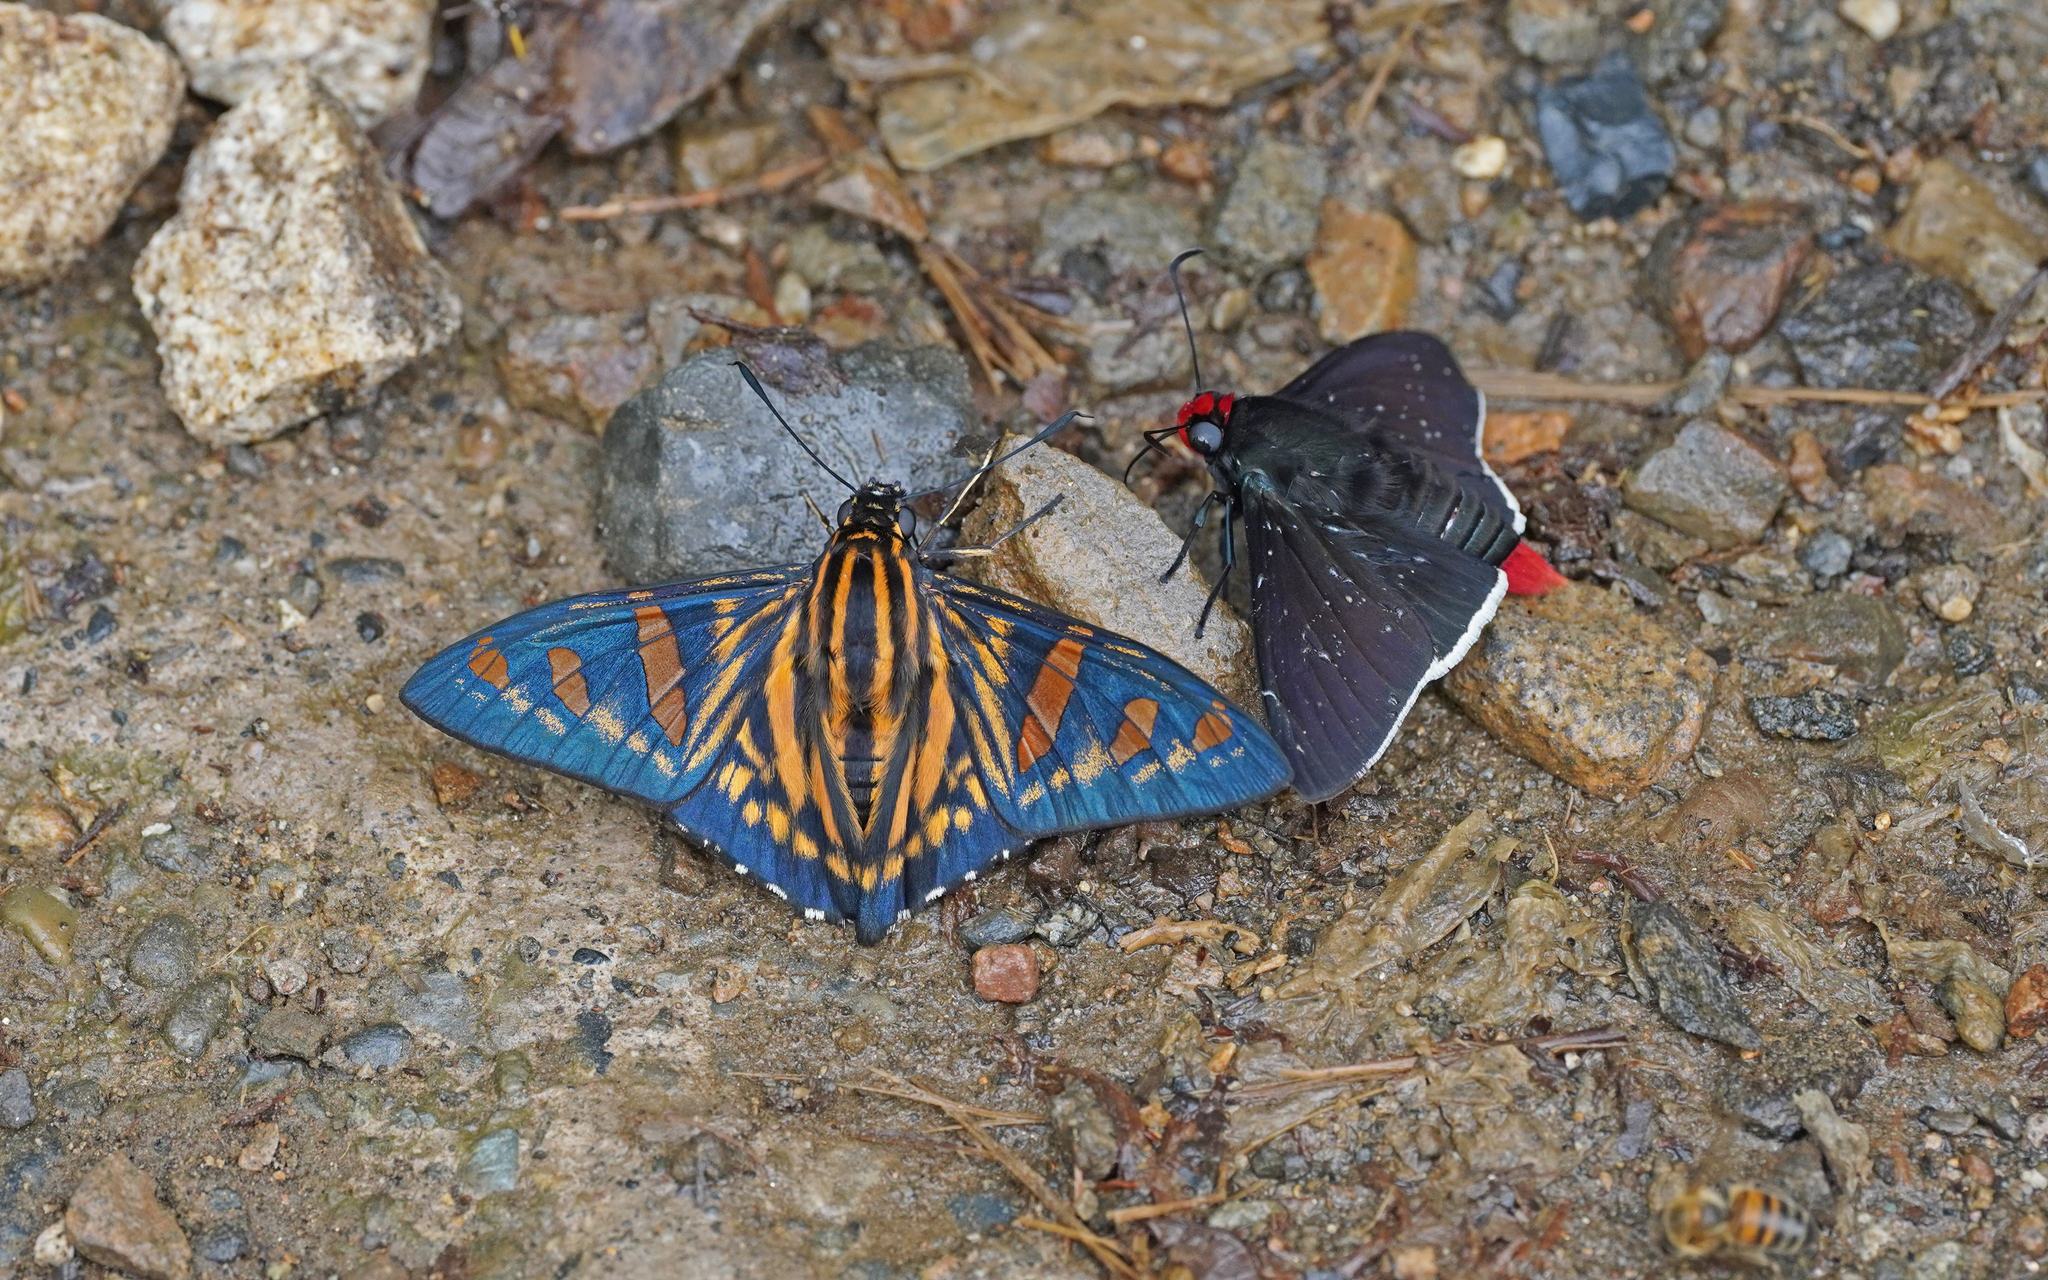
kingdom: Animalia
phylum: Arthropoda
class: Insecta
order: Lepidoptera
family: Hesperiidae
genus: Phocides
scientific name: Phocides yokhara
